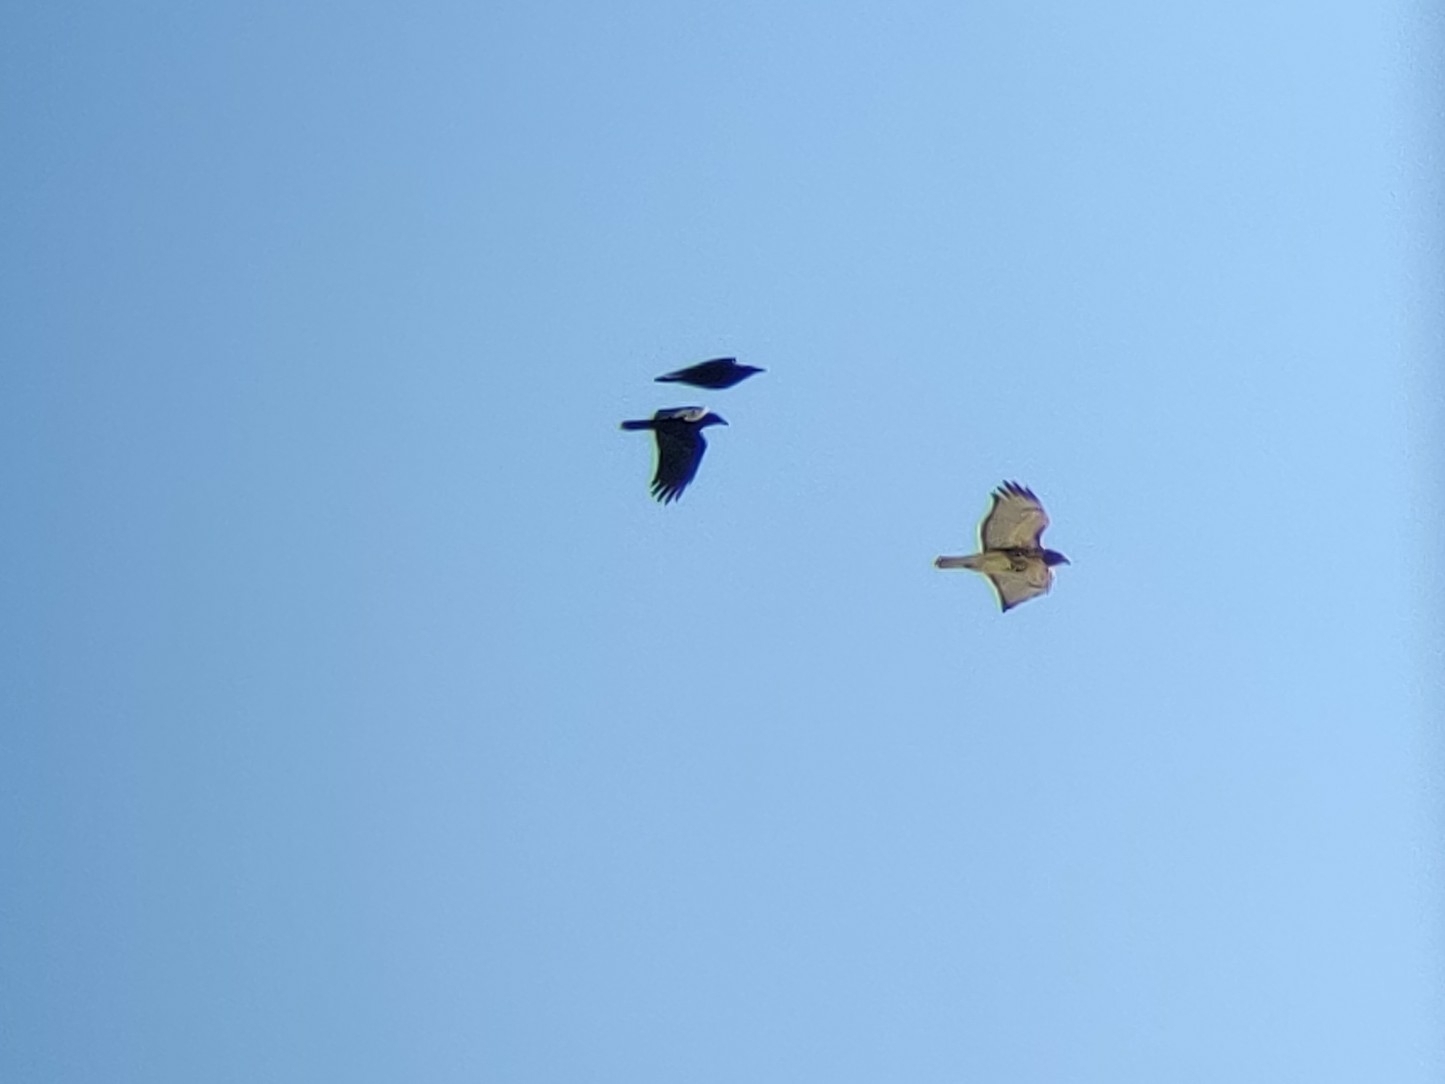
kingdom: Animalia
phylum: Chordata
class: Aves
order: Passeriformes
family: Corvidae
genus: Corvus
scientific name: Corvus brachyrhynchos
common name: American crow
